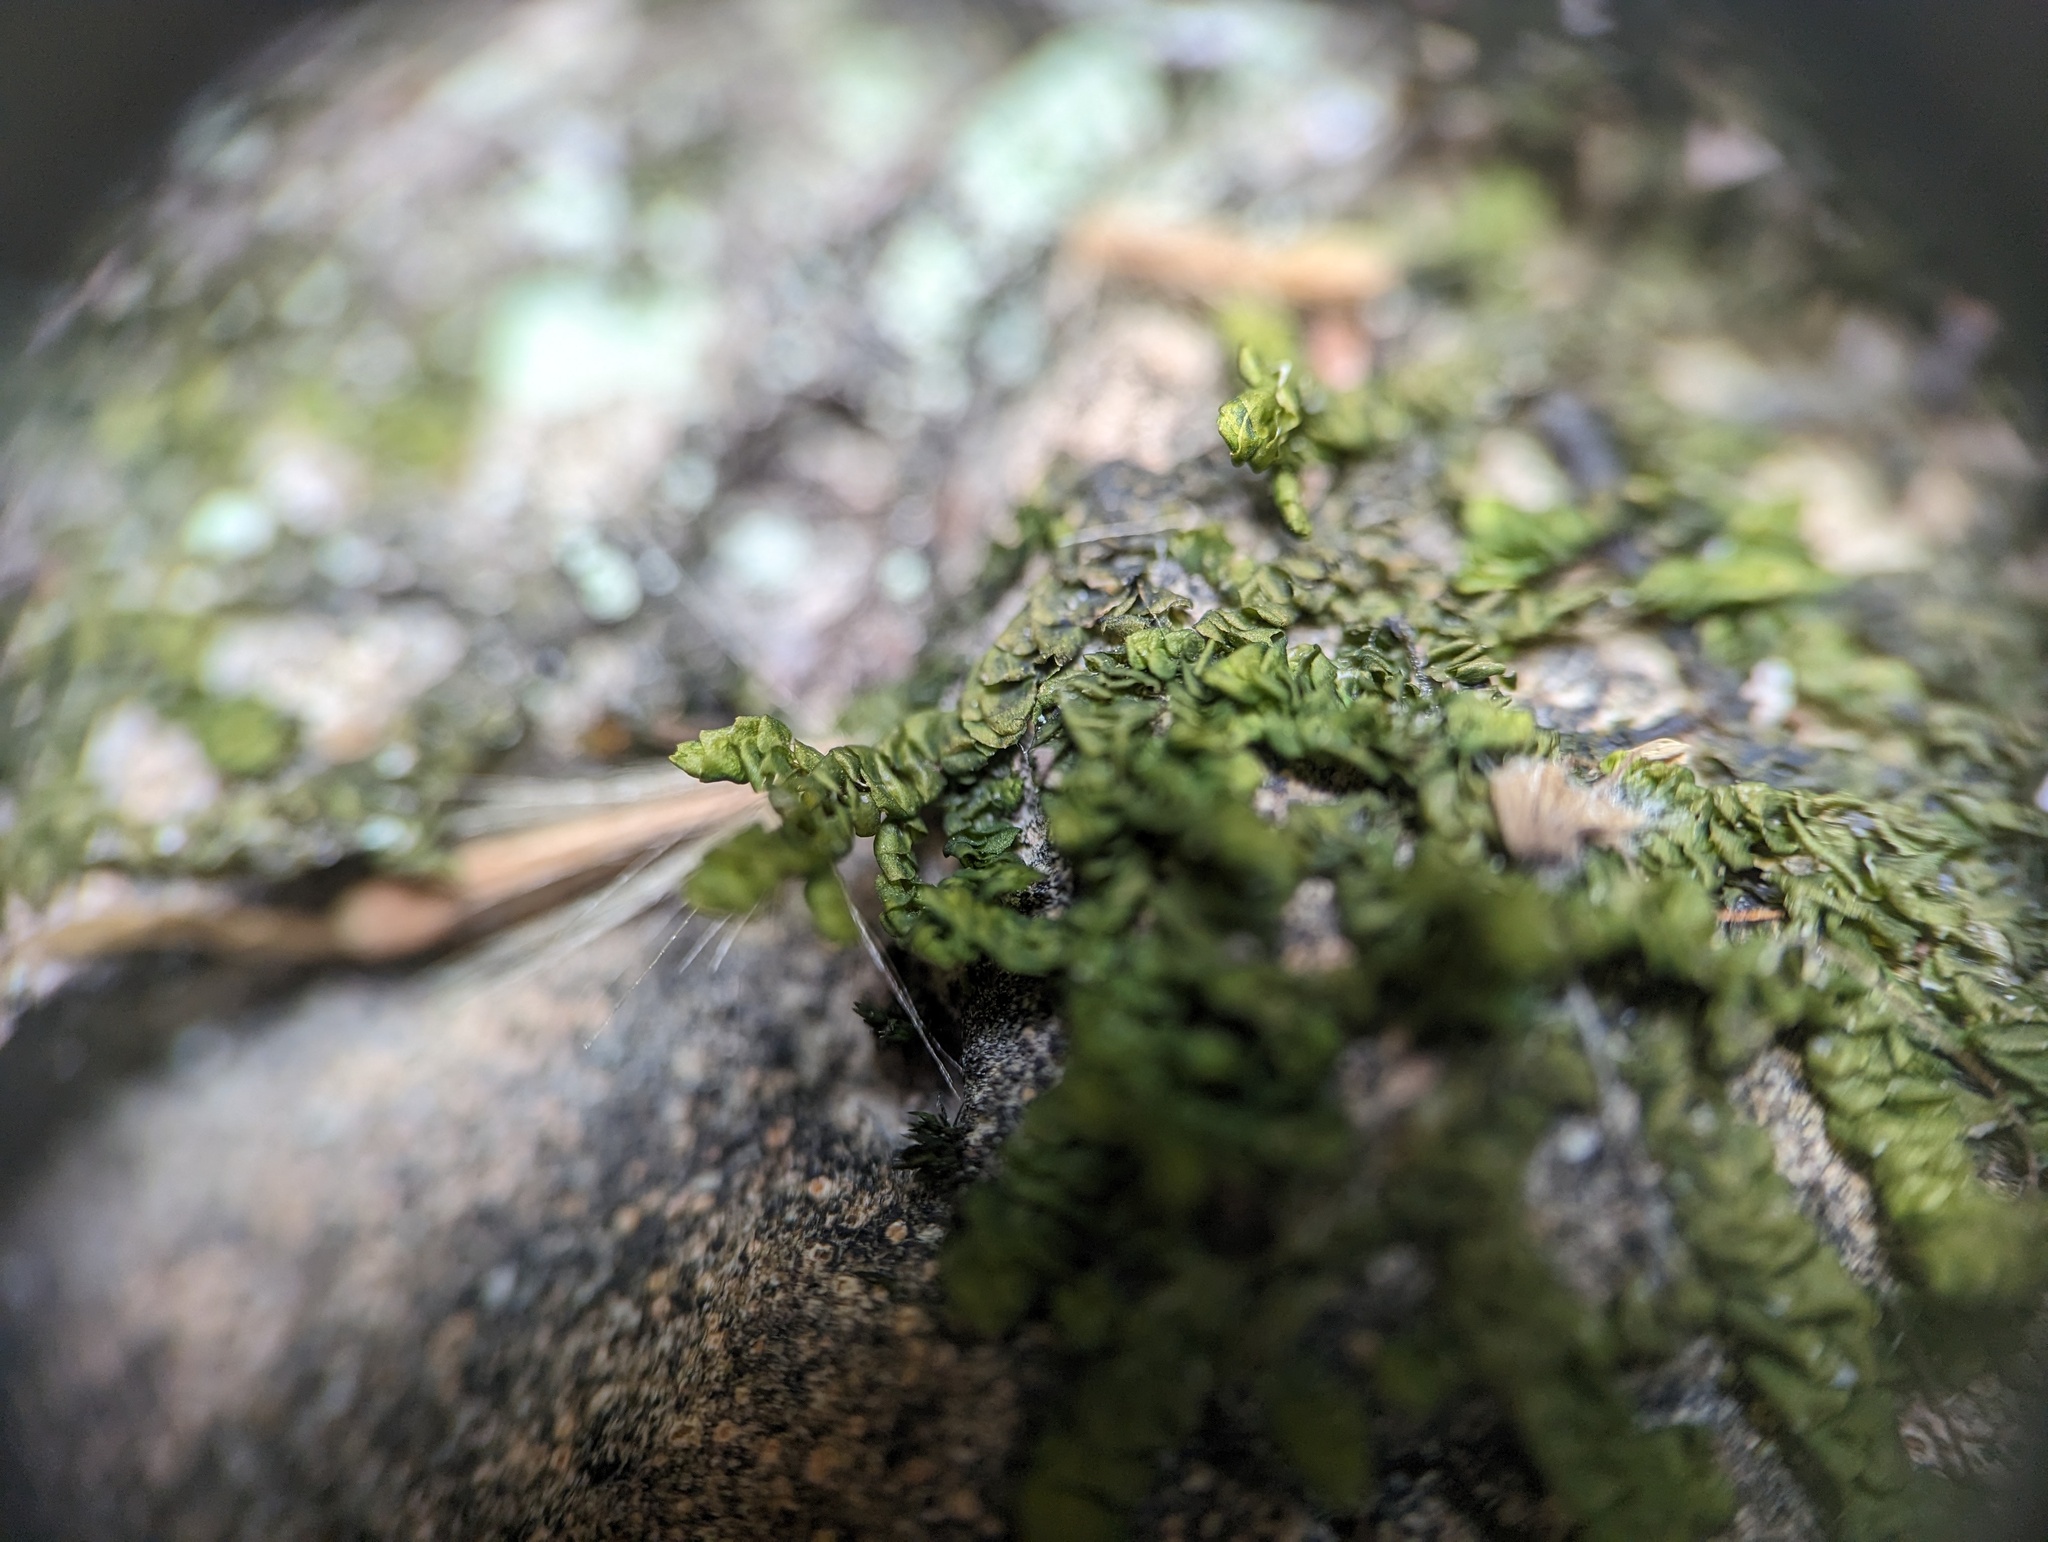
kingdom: Plantae
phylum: Marchantiophyta
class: Jungermanniopsida
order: Porellales
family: Porellaceae
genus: Porella
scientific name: Porella platyphylla
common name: Wall scalewort
